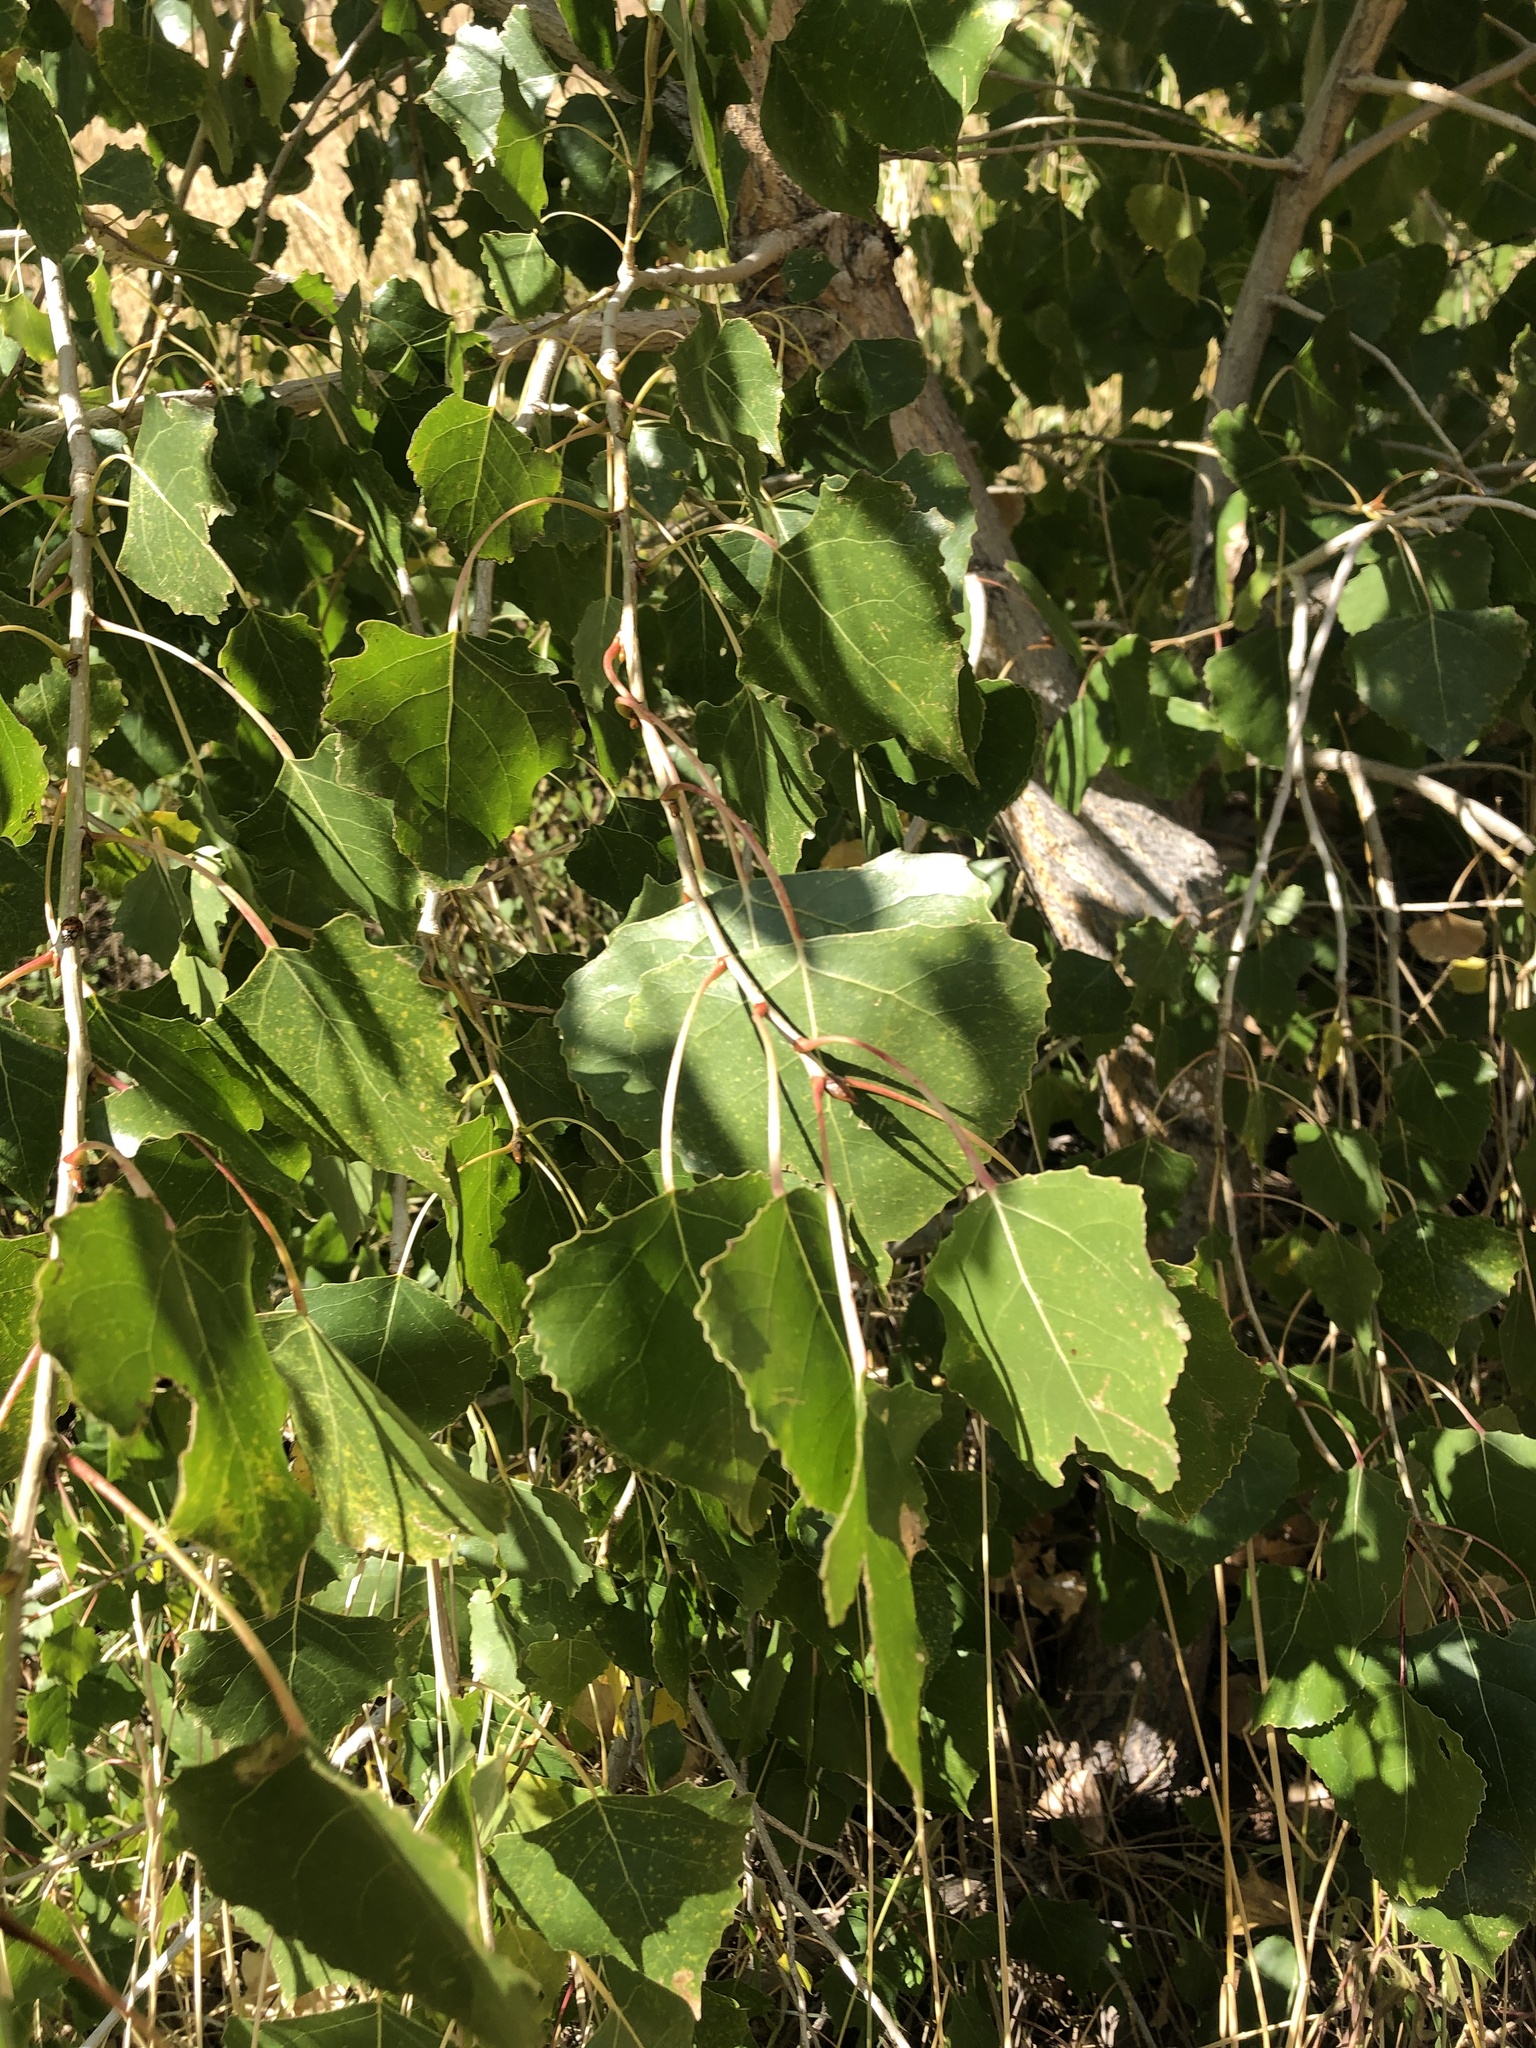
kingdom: Plantae
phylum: Tracheophyta
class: Magnoliopsida
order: Malpighiales
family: Salicaceae
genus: Populus
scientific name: Populus deltoides
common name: Eastern cottonwood
